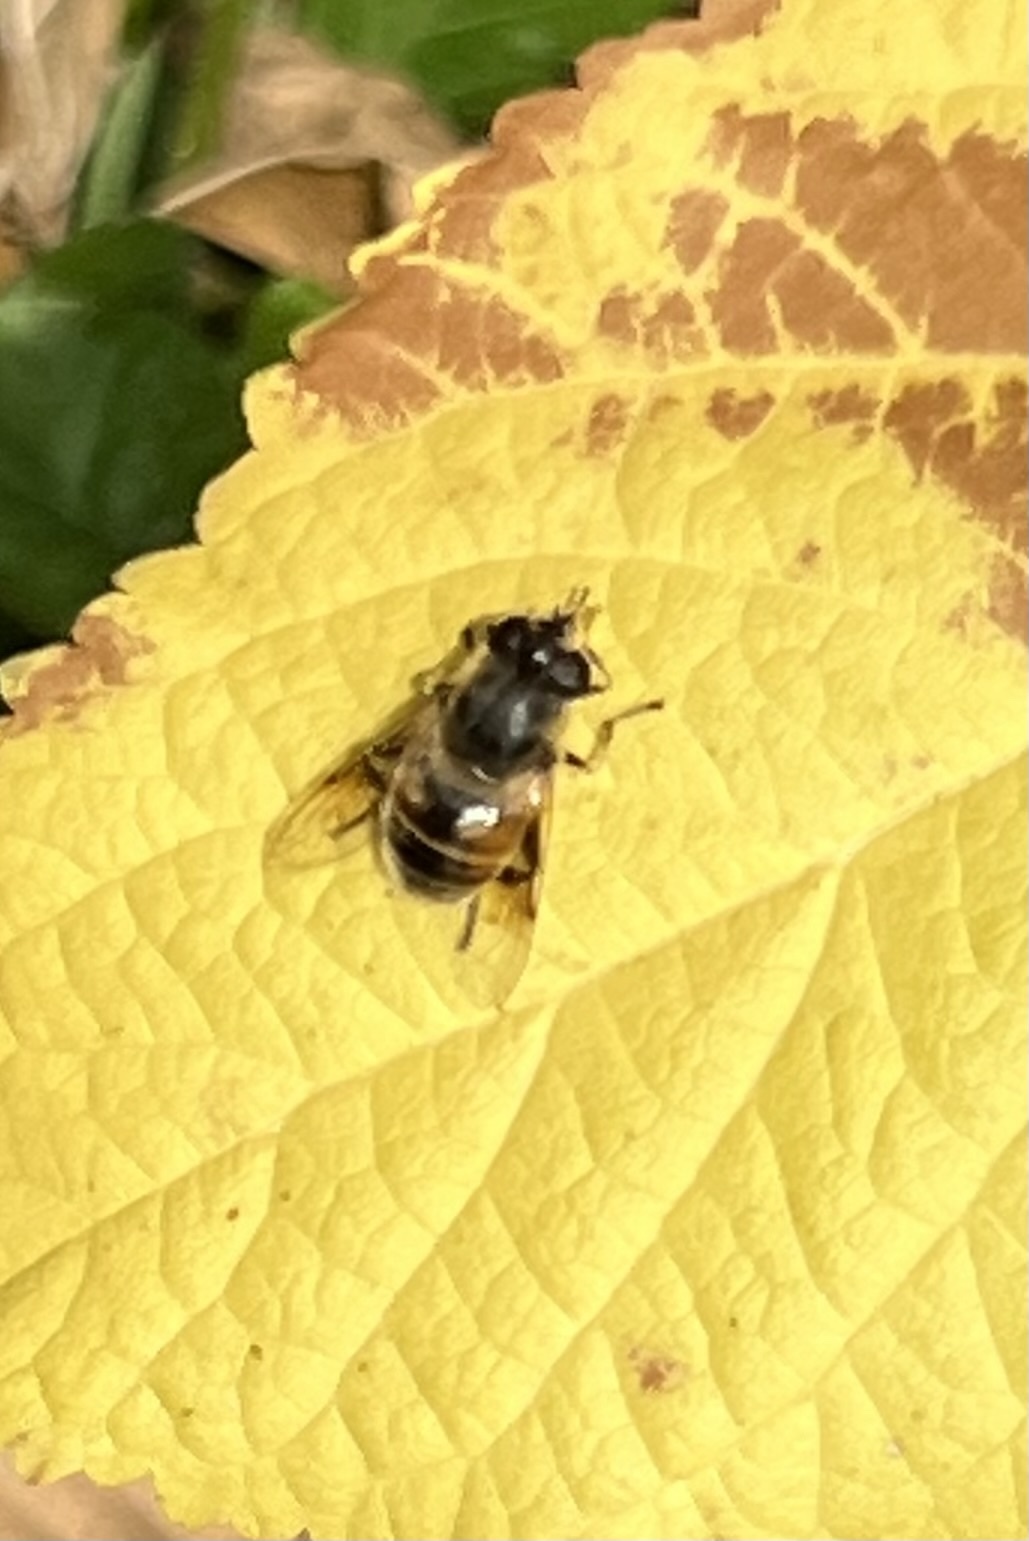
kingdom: Animalia
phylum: Arthropoda
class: Insecta
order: Diptera
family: Syrphidae
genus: Eristalis
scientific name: Eristalis tenax
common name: Drone fly
